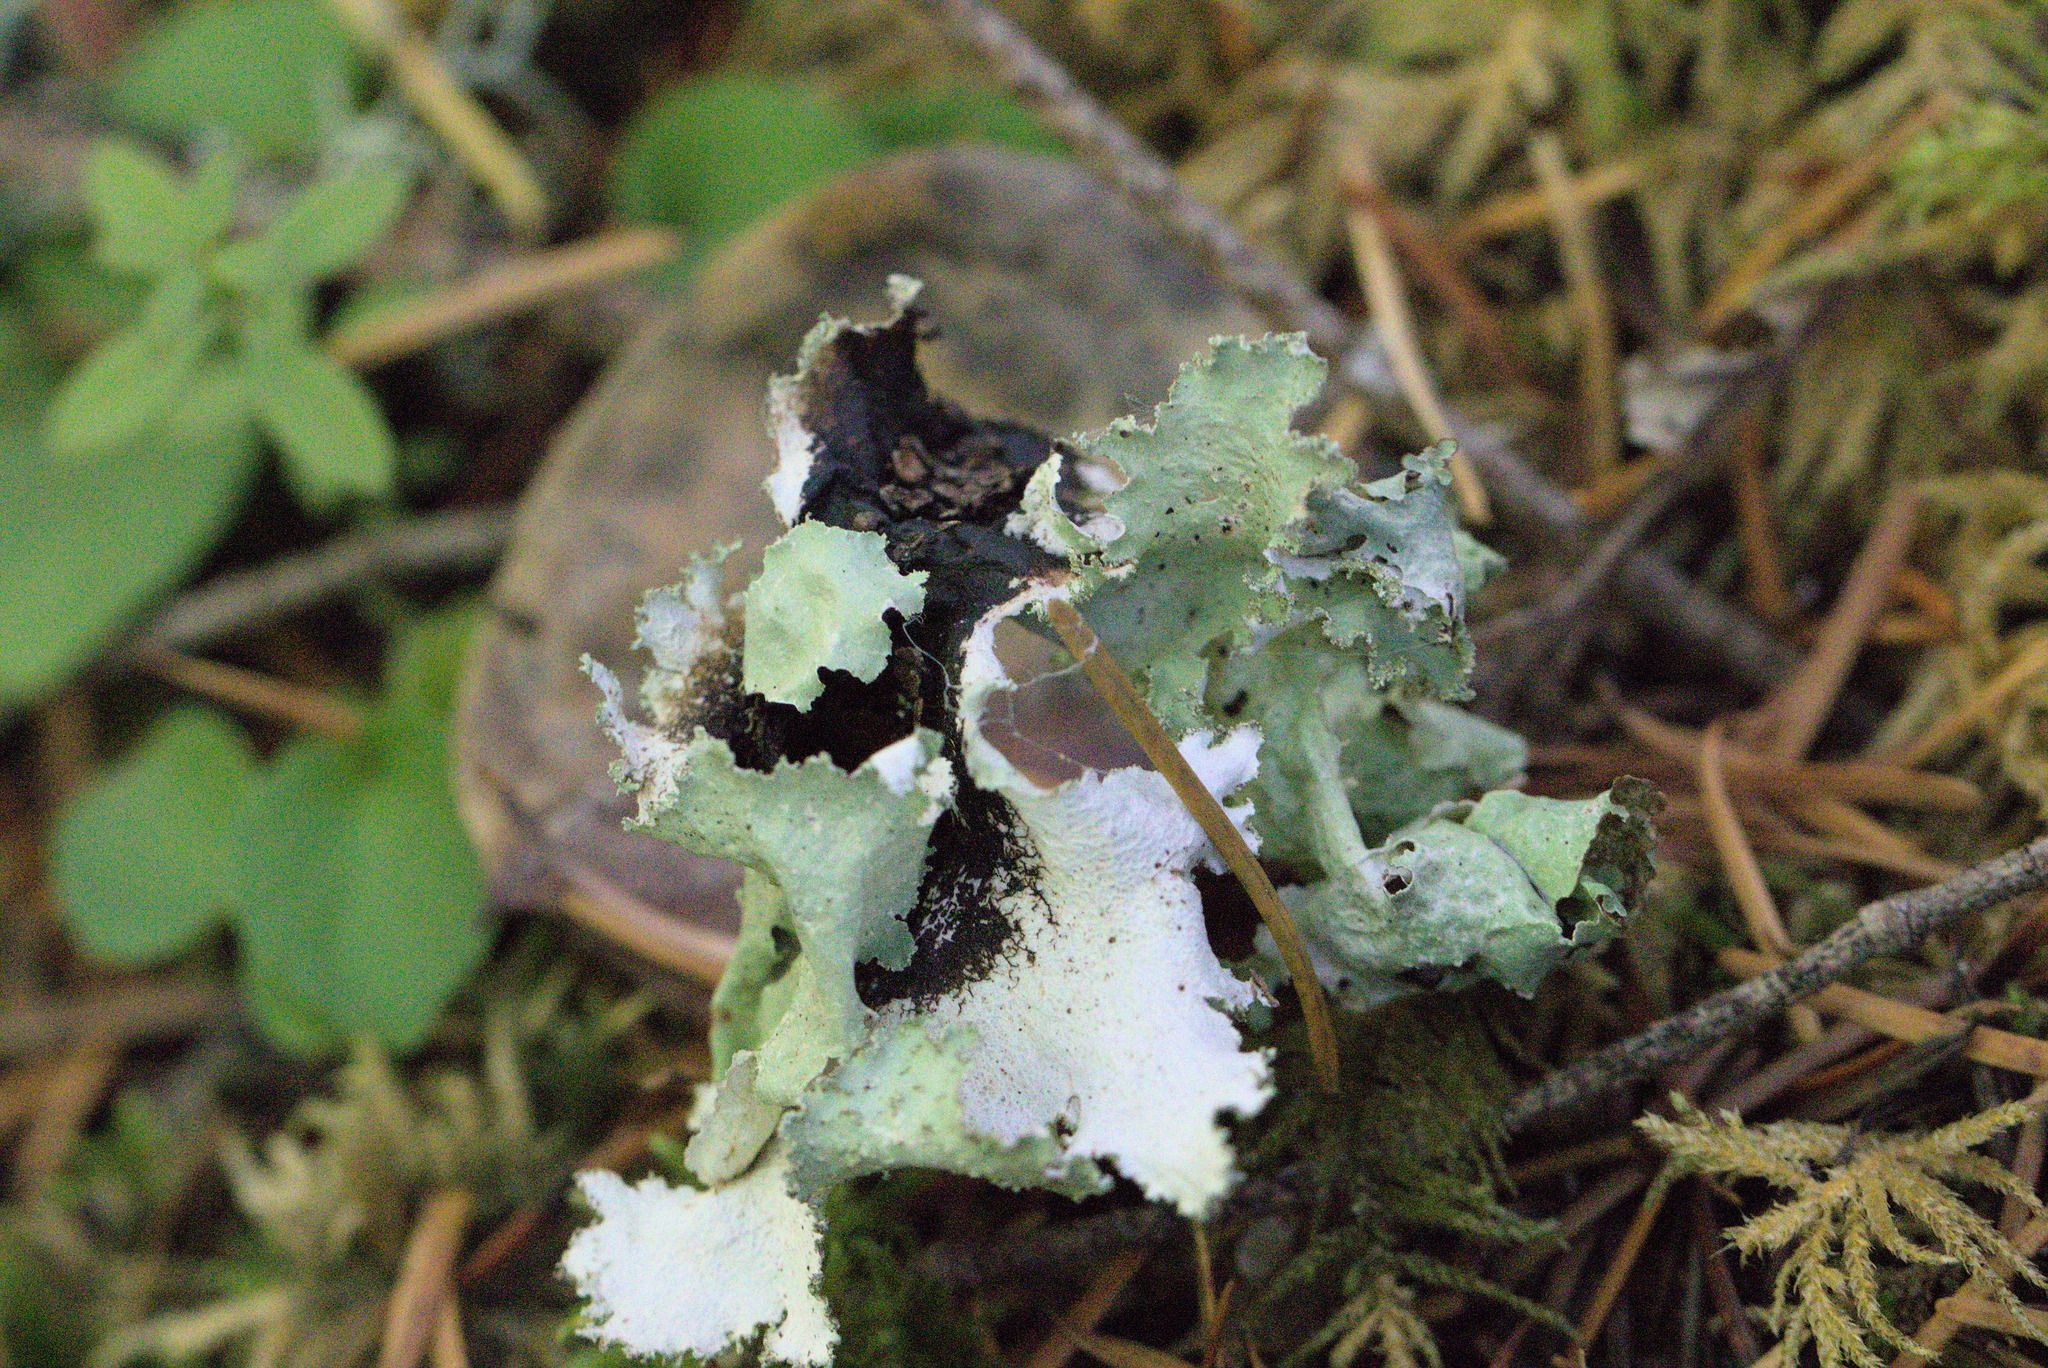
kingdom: Fungi
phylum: Ascomycota
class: Lecanoromycetes
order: Lecanorales
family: Parmeliaceae
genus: Platismatia
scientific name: Platismatia glauca
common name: Varied rag lichen
